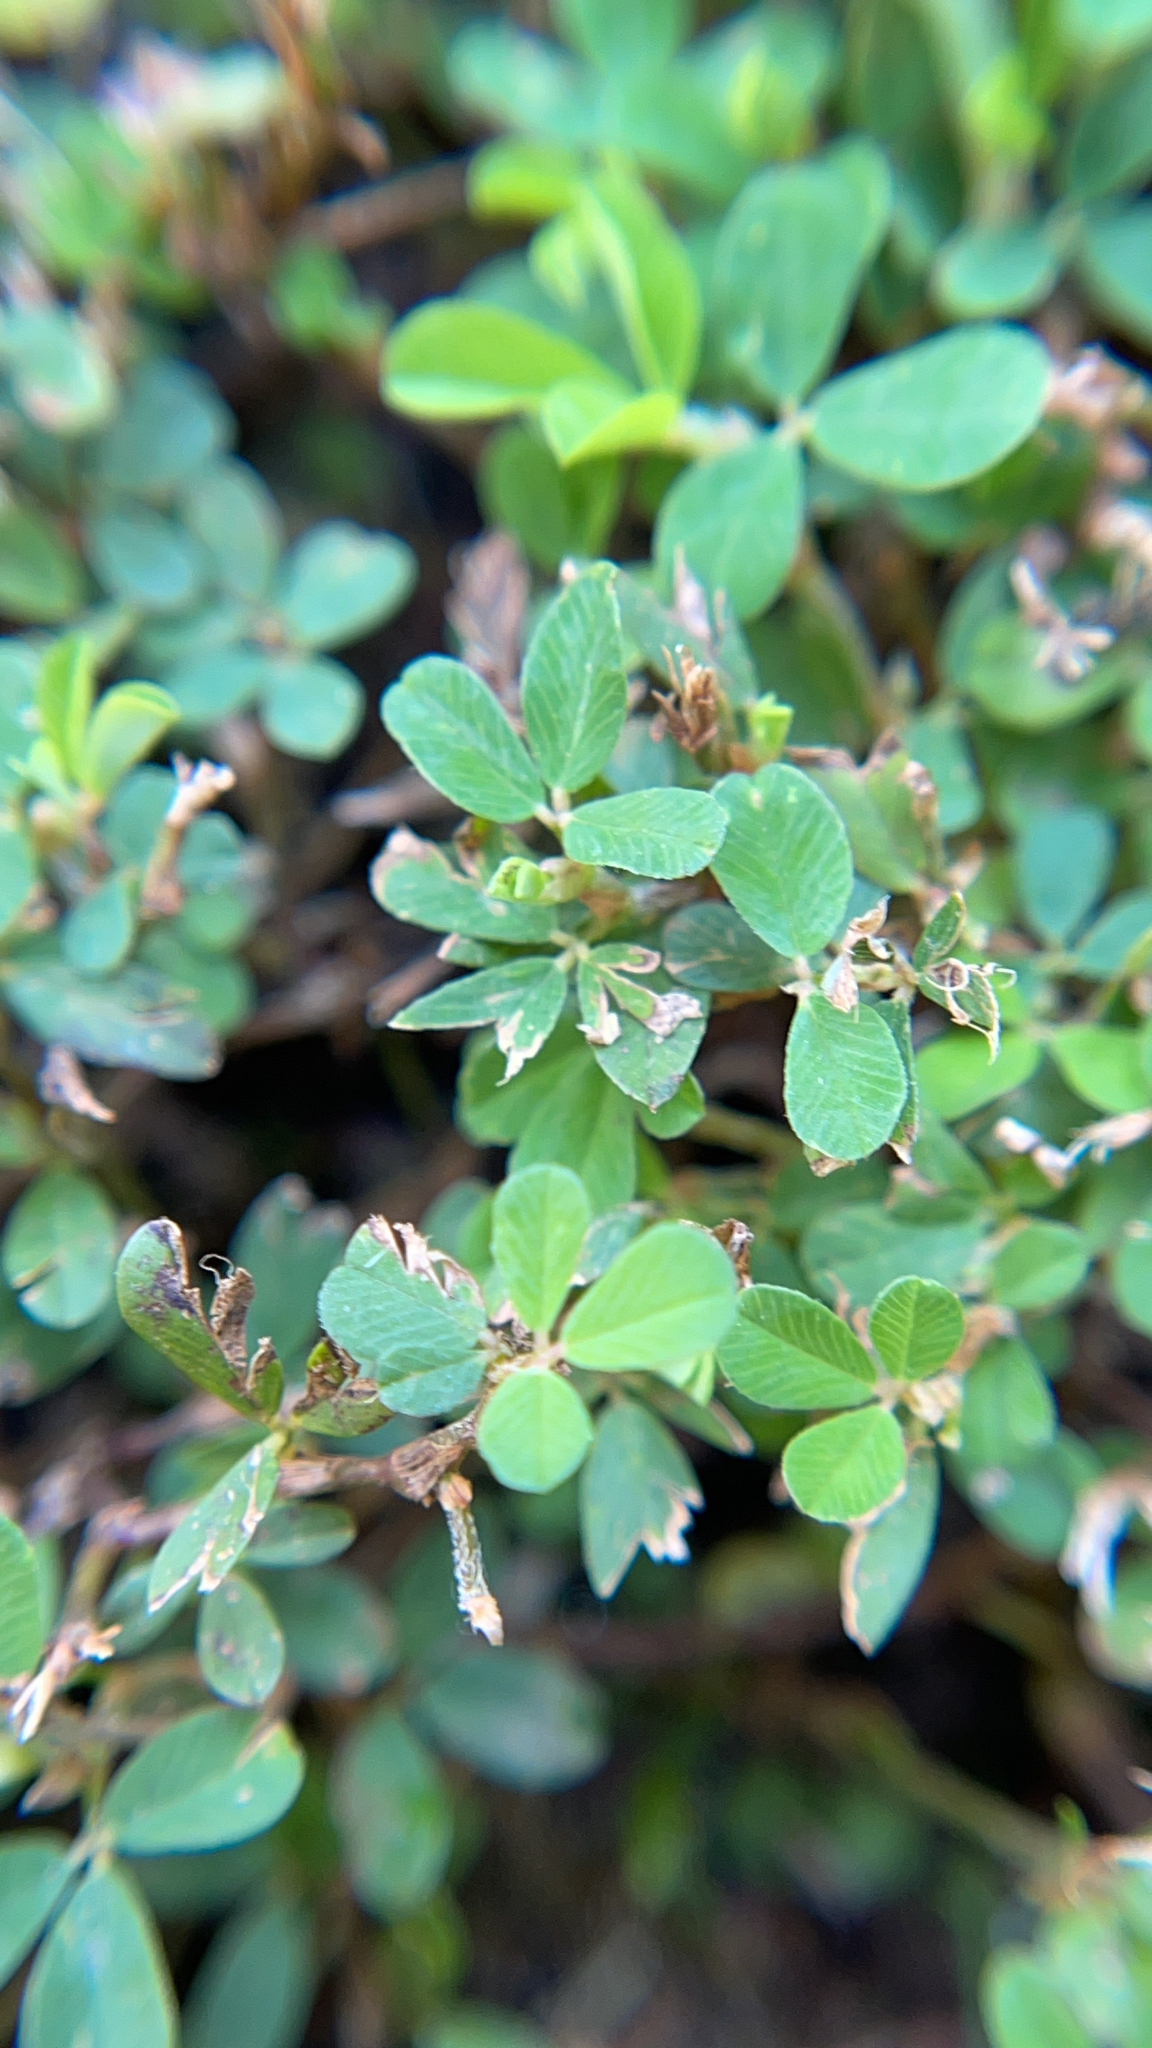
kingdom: Plantae
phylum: Tracheophyta
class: Magnoliopsida
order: Fabales
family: Fabaceae
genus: Kummerowia
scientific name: Kummerowia striata
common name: Japanese clover
